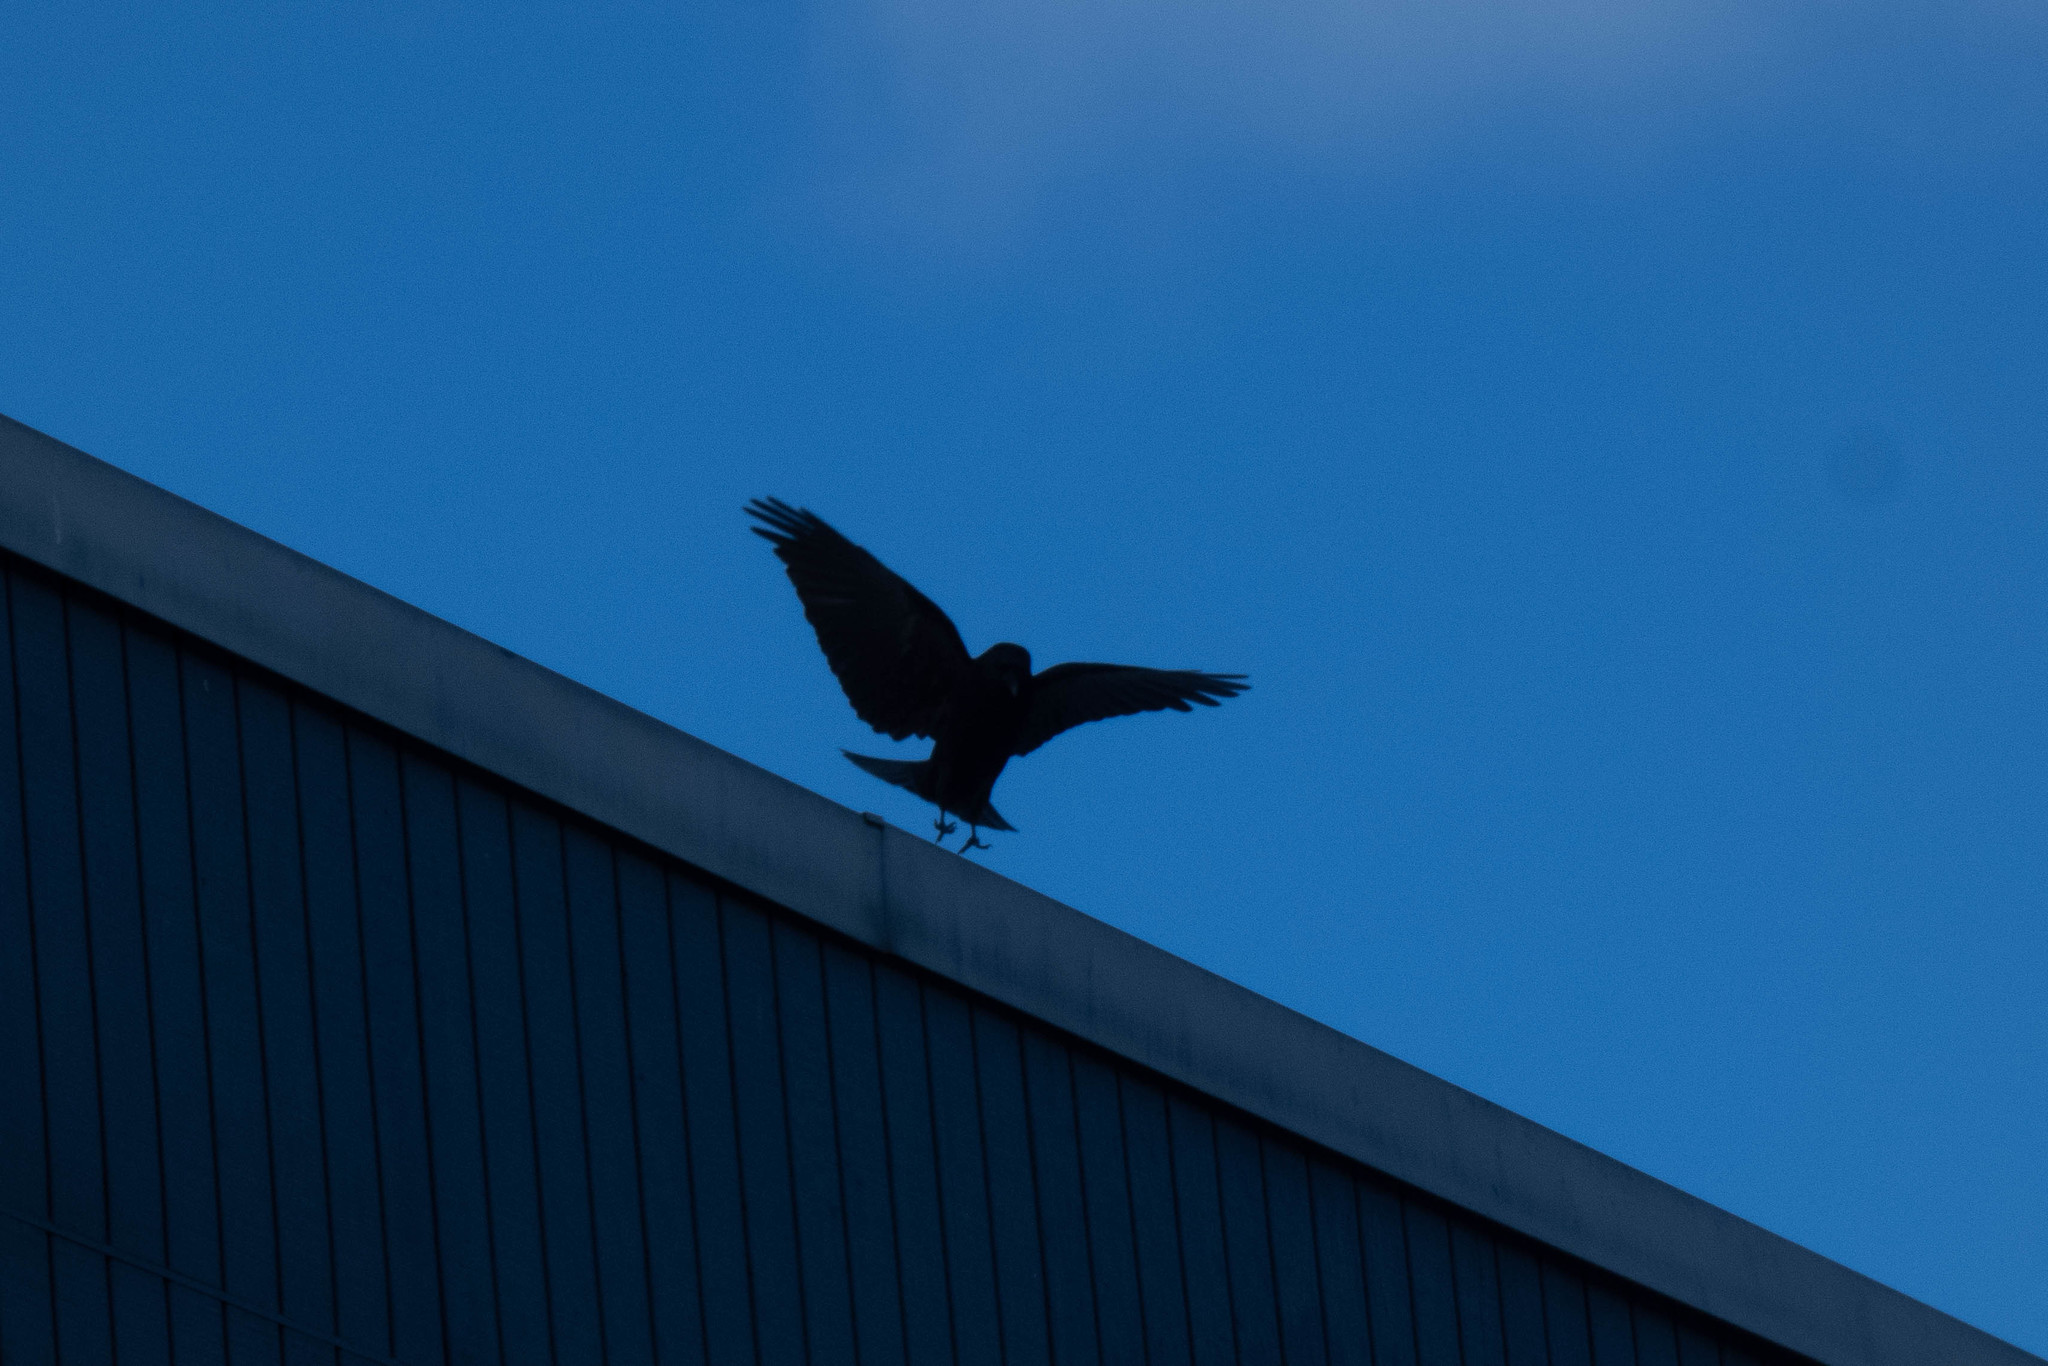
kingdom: Animalia
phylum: Chordata
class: Aves
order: Passeriformes
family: Corvidae
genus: Corvus
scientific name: Corvus brachyrhynchos
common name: American crow
